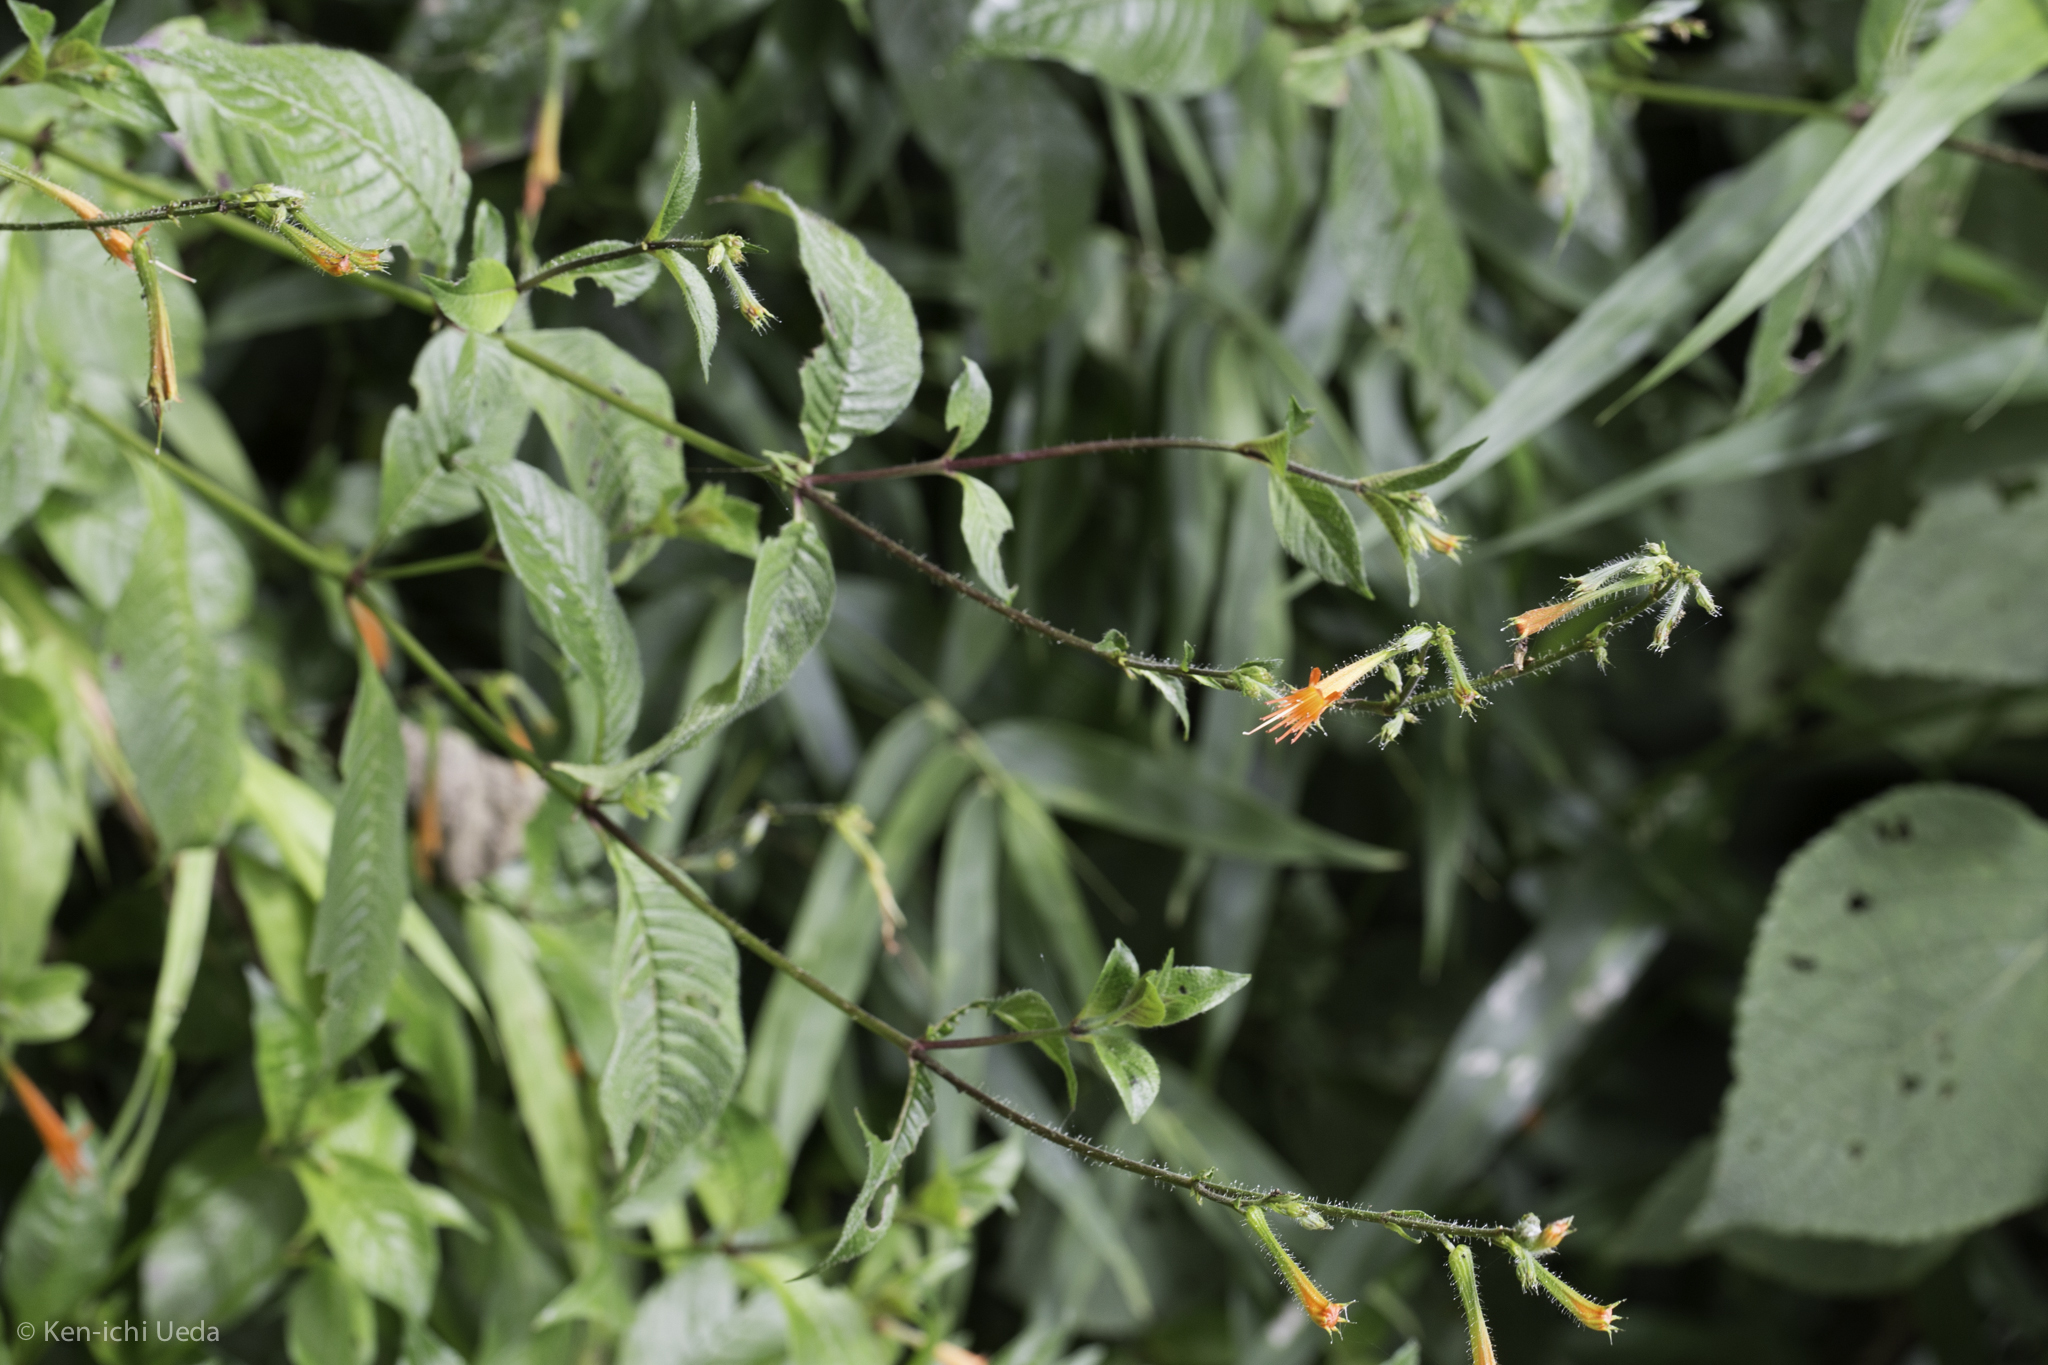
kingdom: Plantae
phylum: Tracheophyta
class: Magnoliopsida
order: Myrtales
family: Lythraceae
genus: Cuphea
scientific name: Cuphea appendiculata
